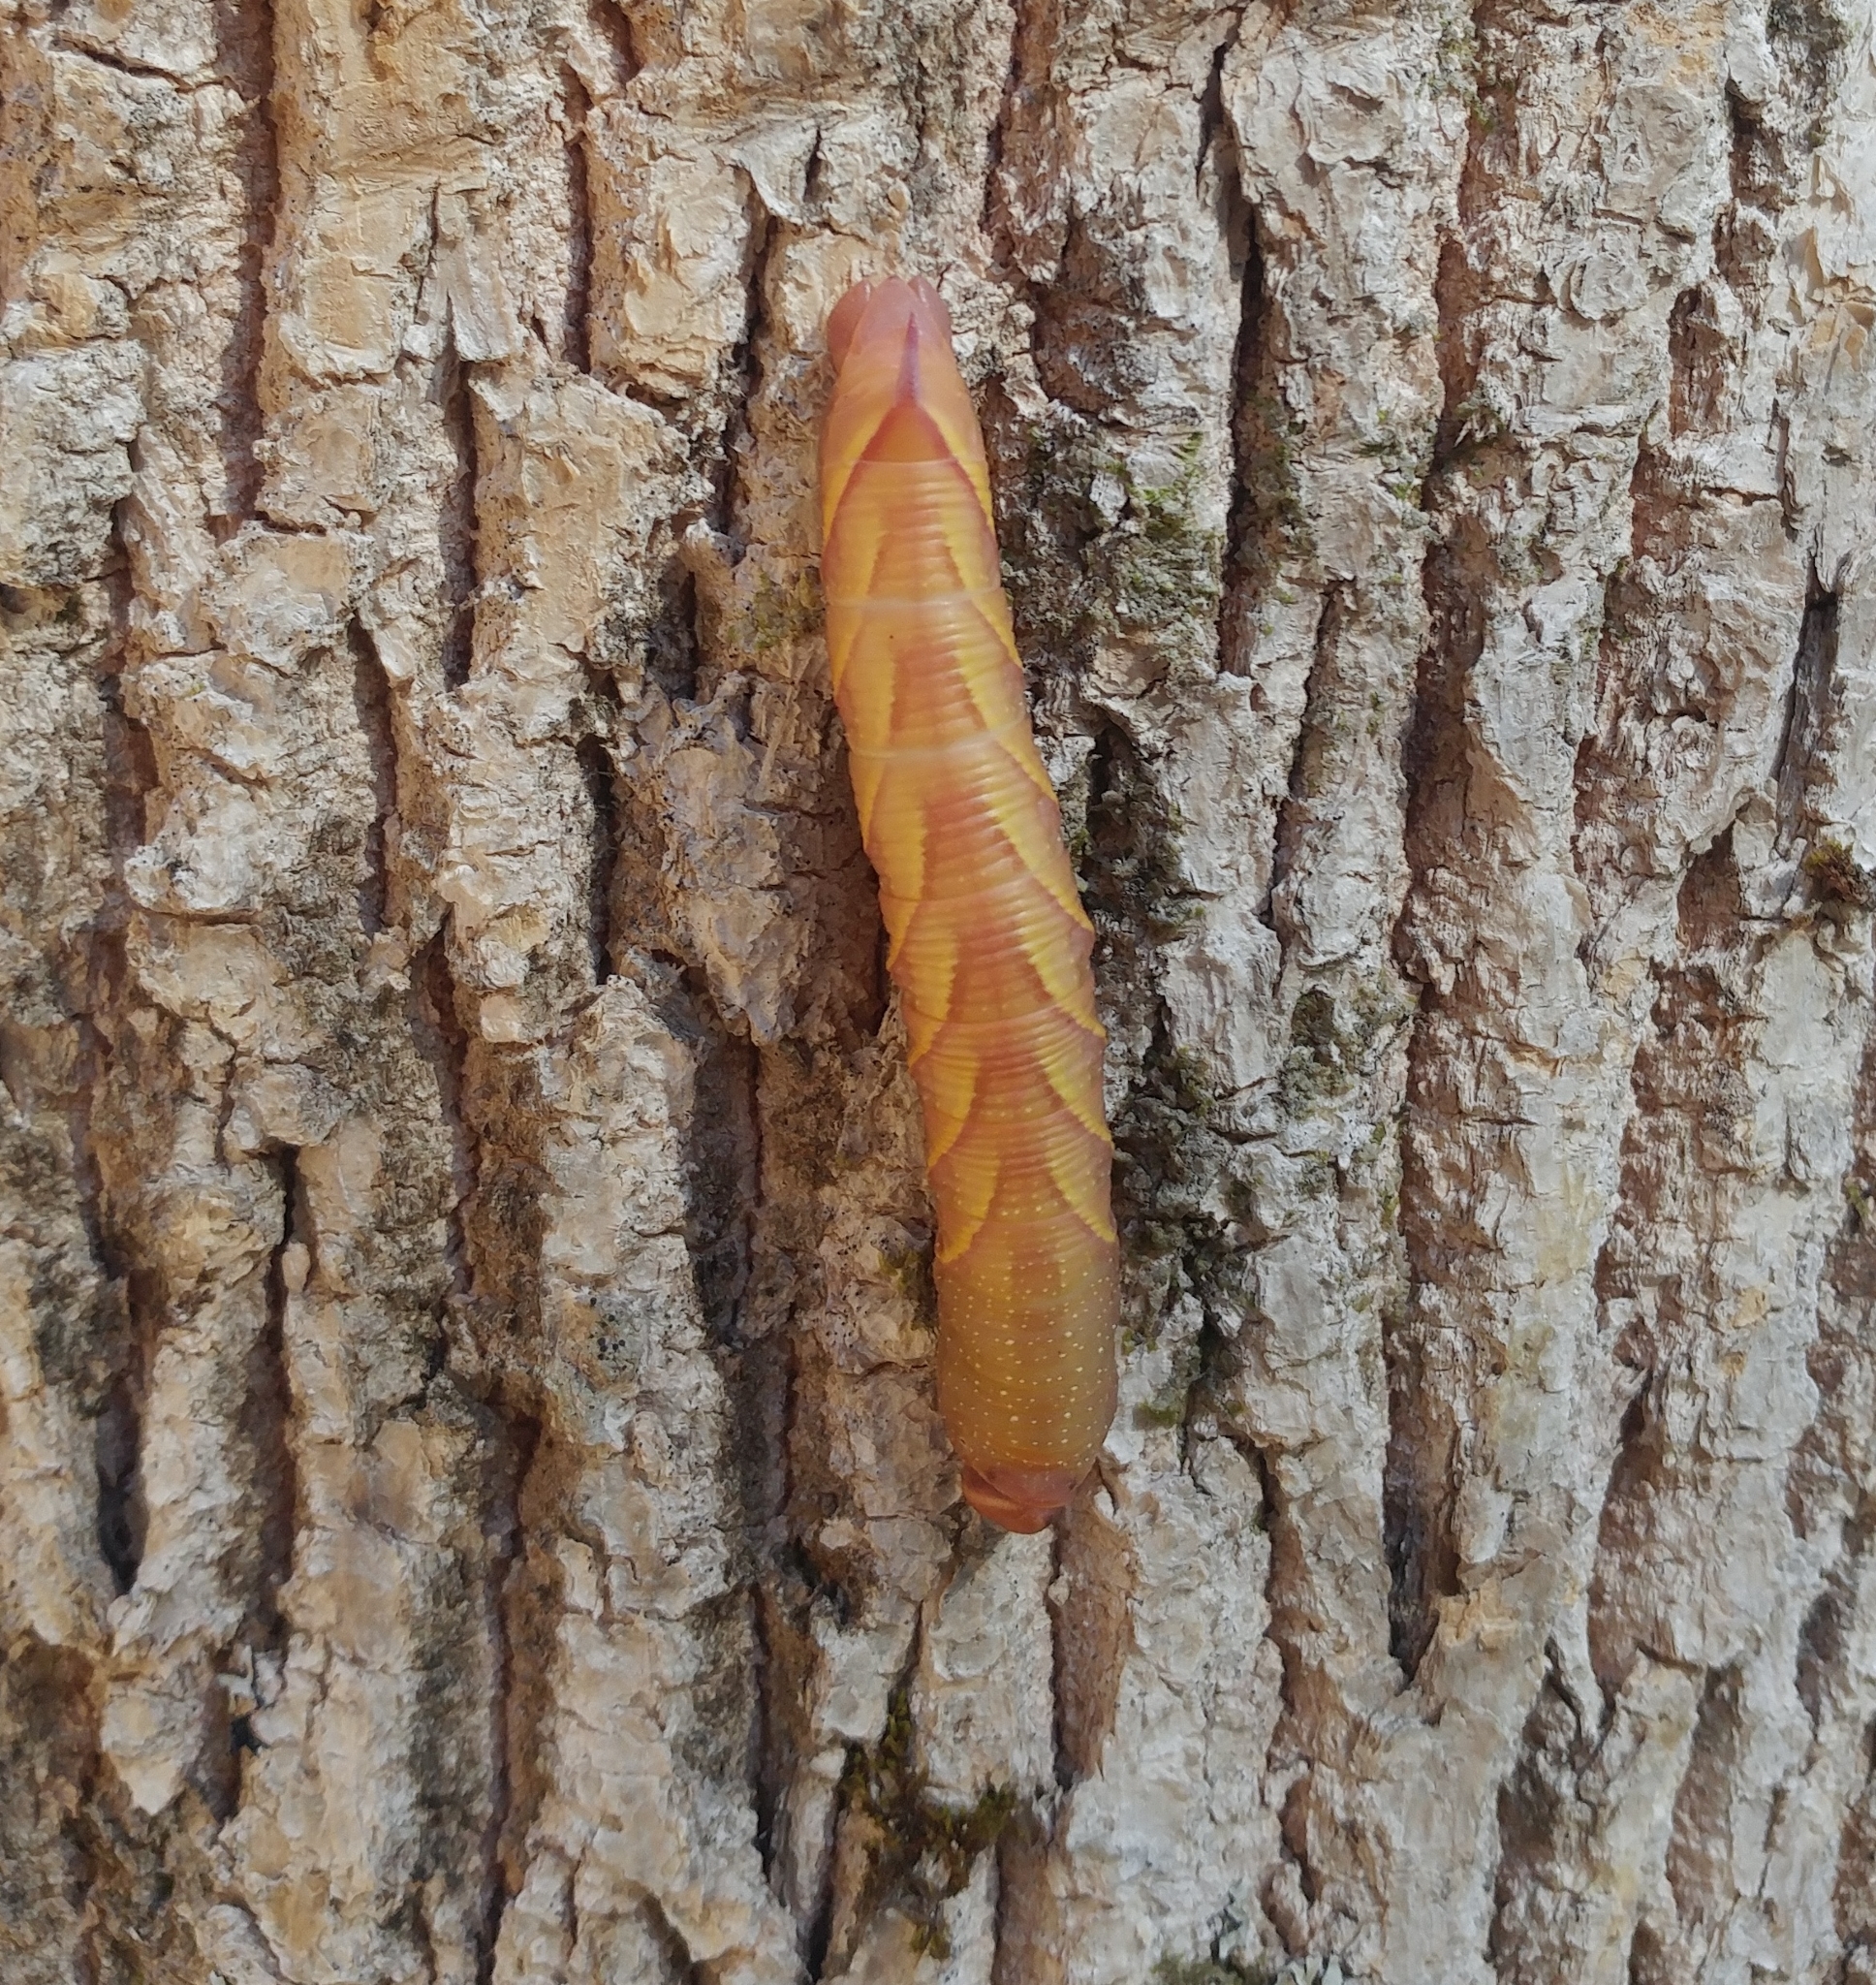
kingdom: Animalia
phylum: Arthropoda
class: Insecta
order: Lepidoptera
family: Sphingidae
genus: Sphinx
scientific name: Sphinx chersis
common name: Great ash sphinx
